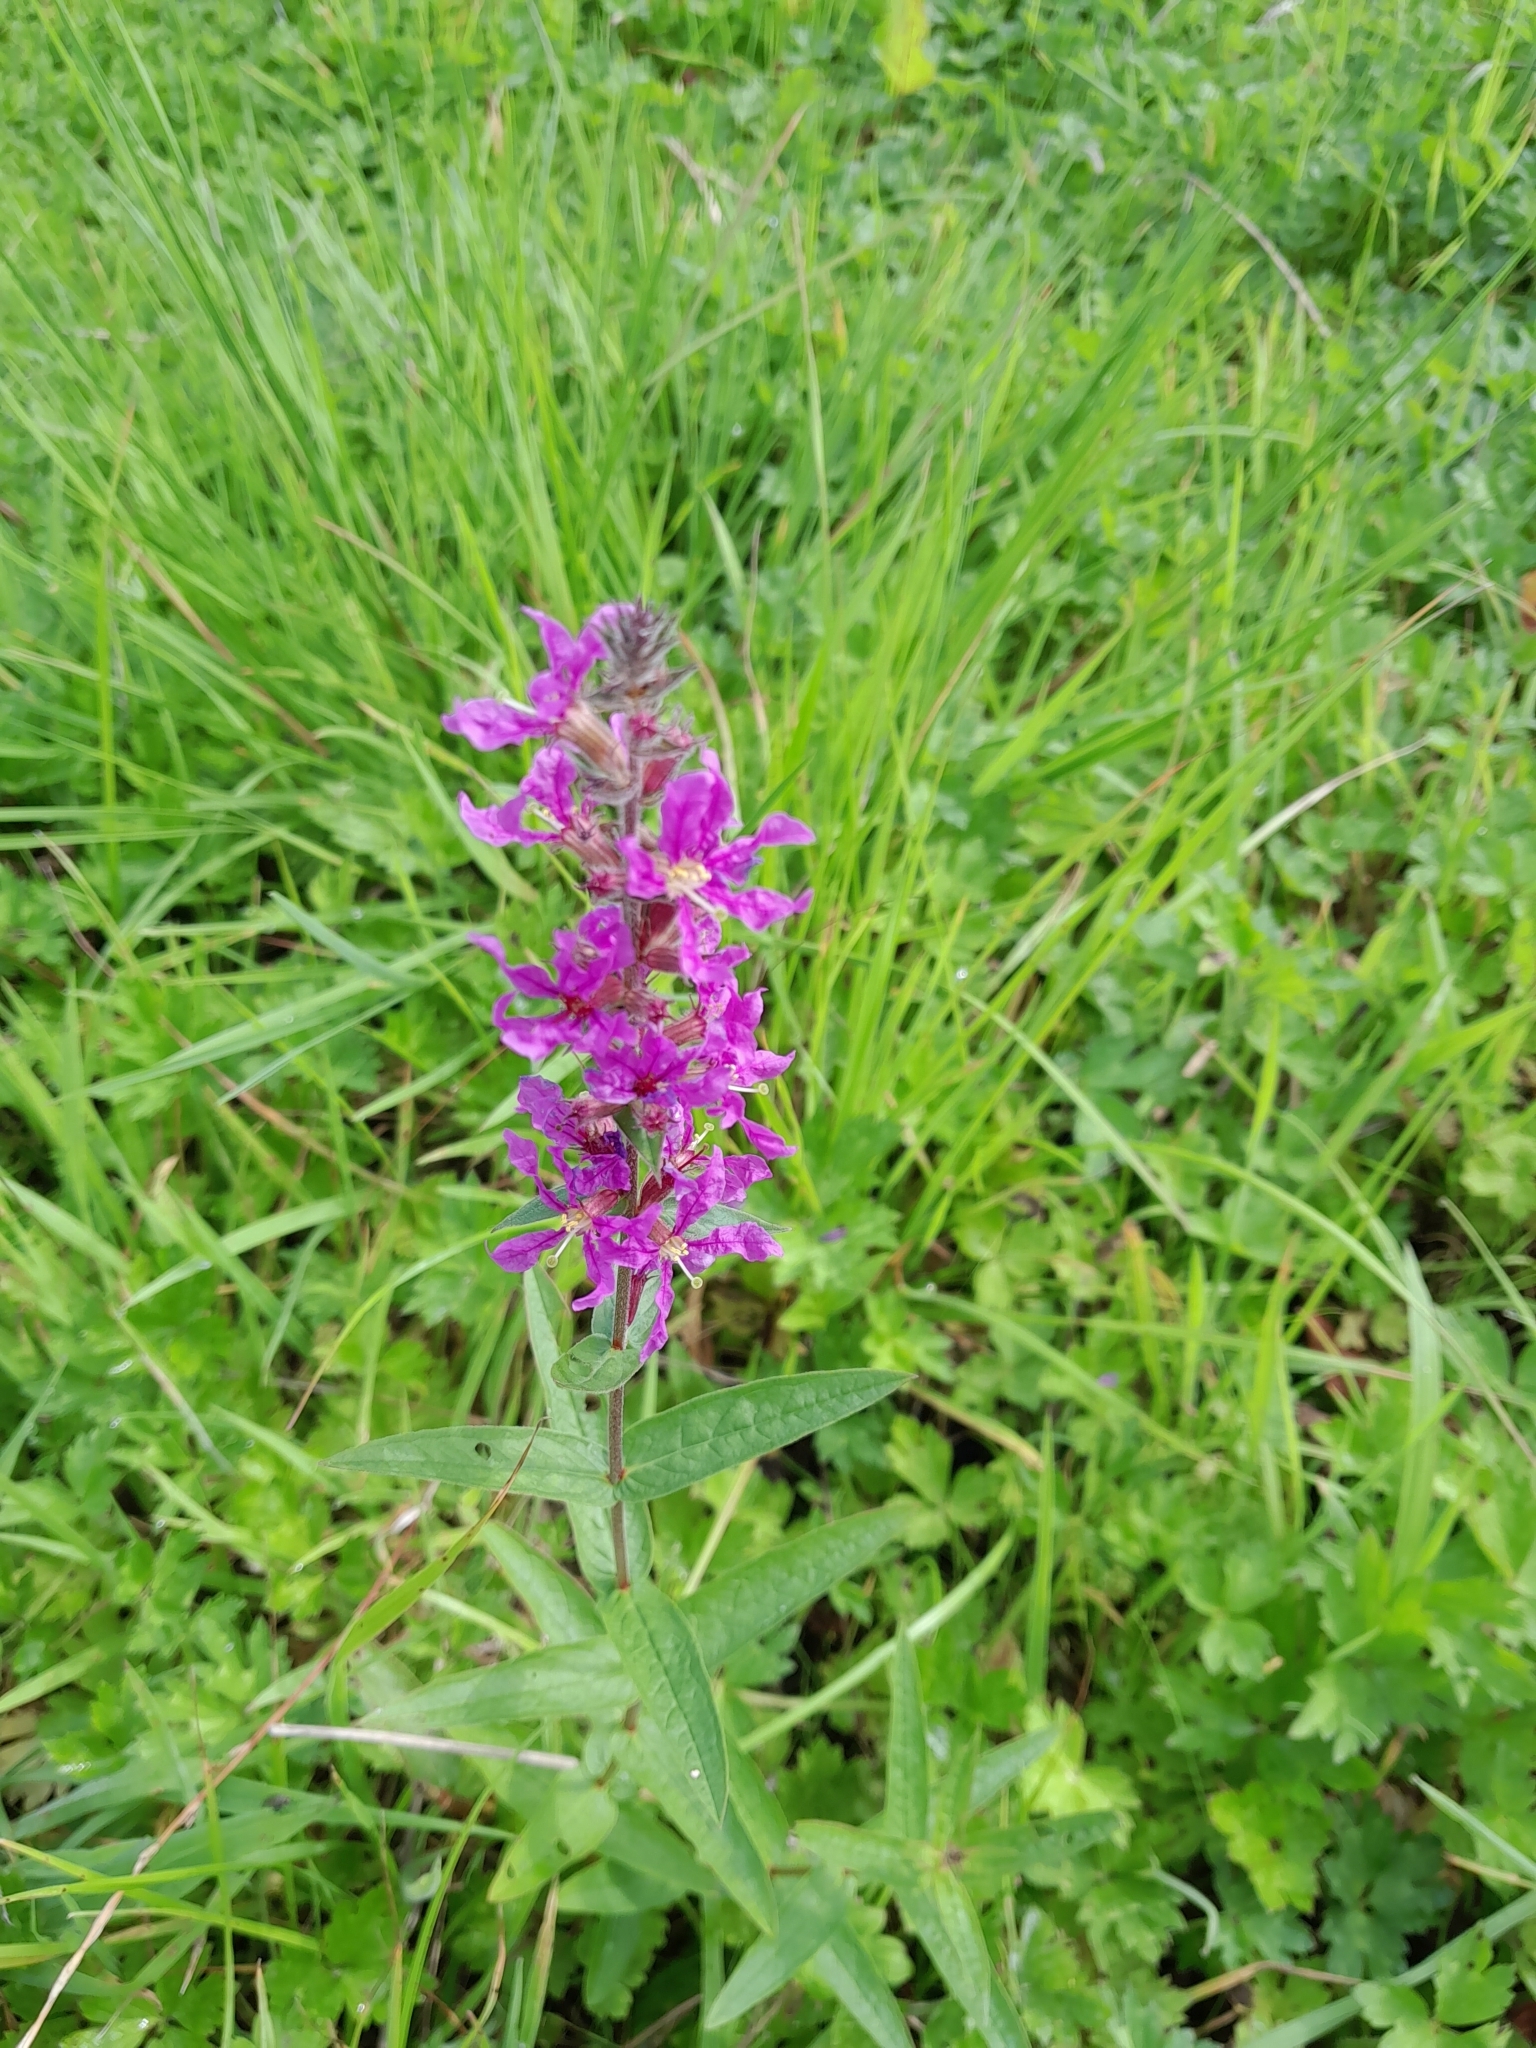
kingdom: Plantae
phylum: Tracheophyta
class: Magnoliopsida
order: Myrtales
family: Lythraceae
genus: Lythrum
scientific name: Lythrum salicaria
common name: Purple loosestrife
